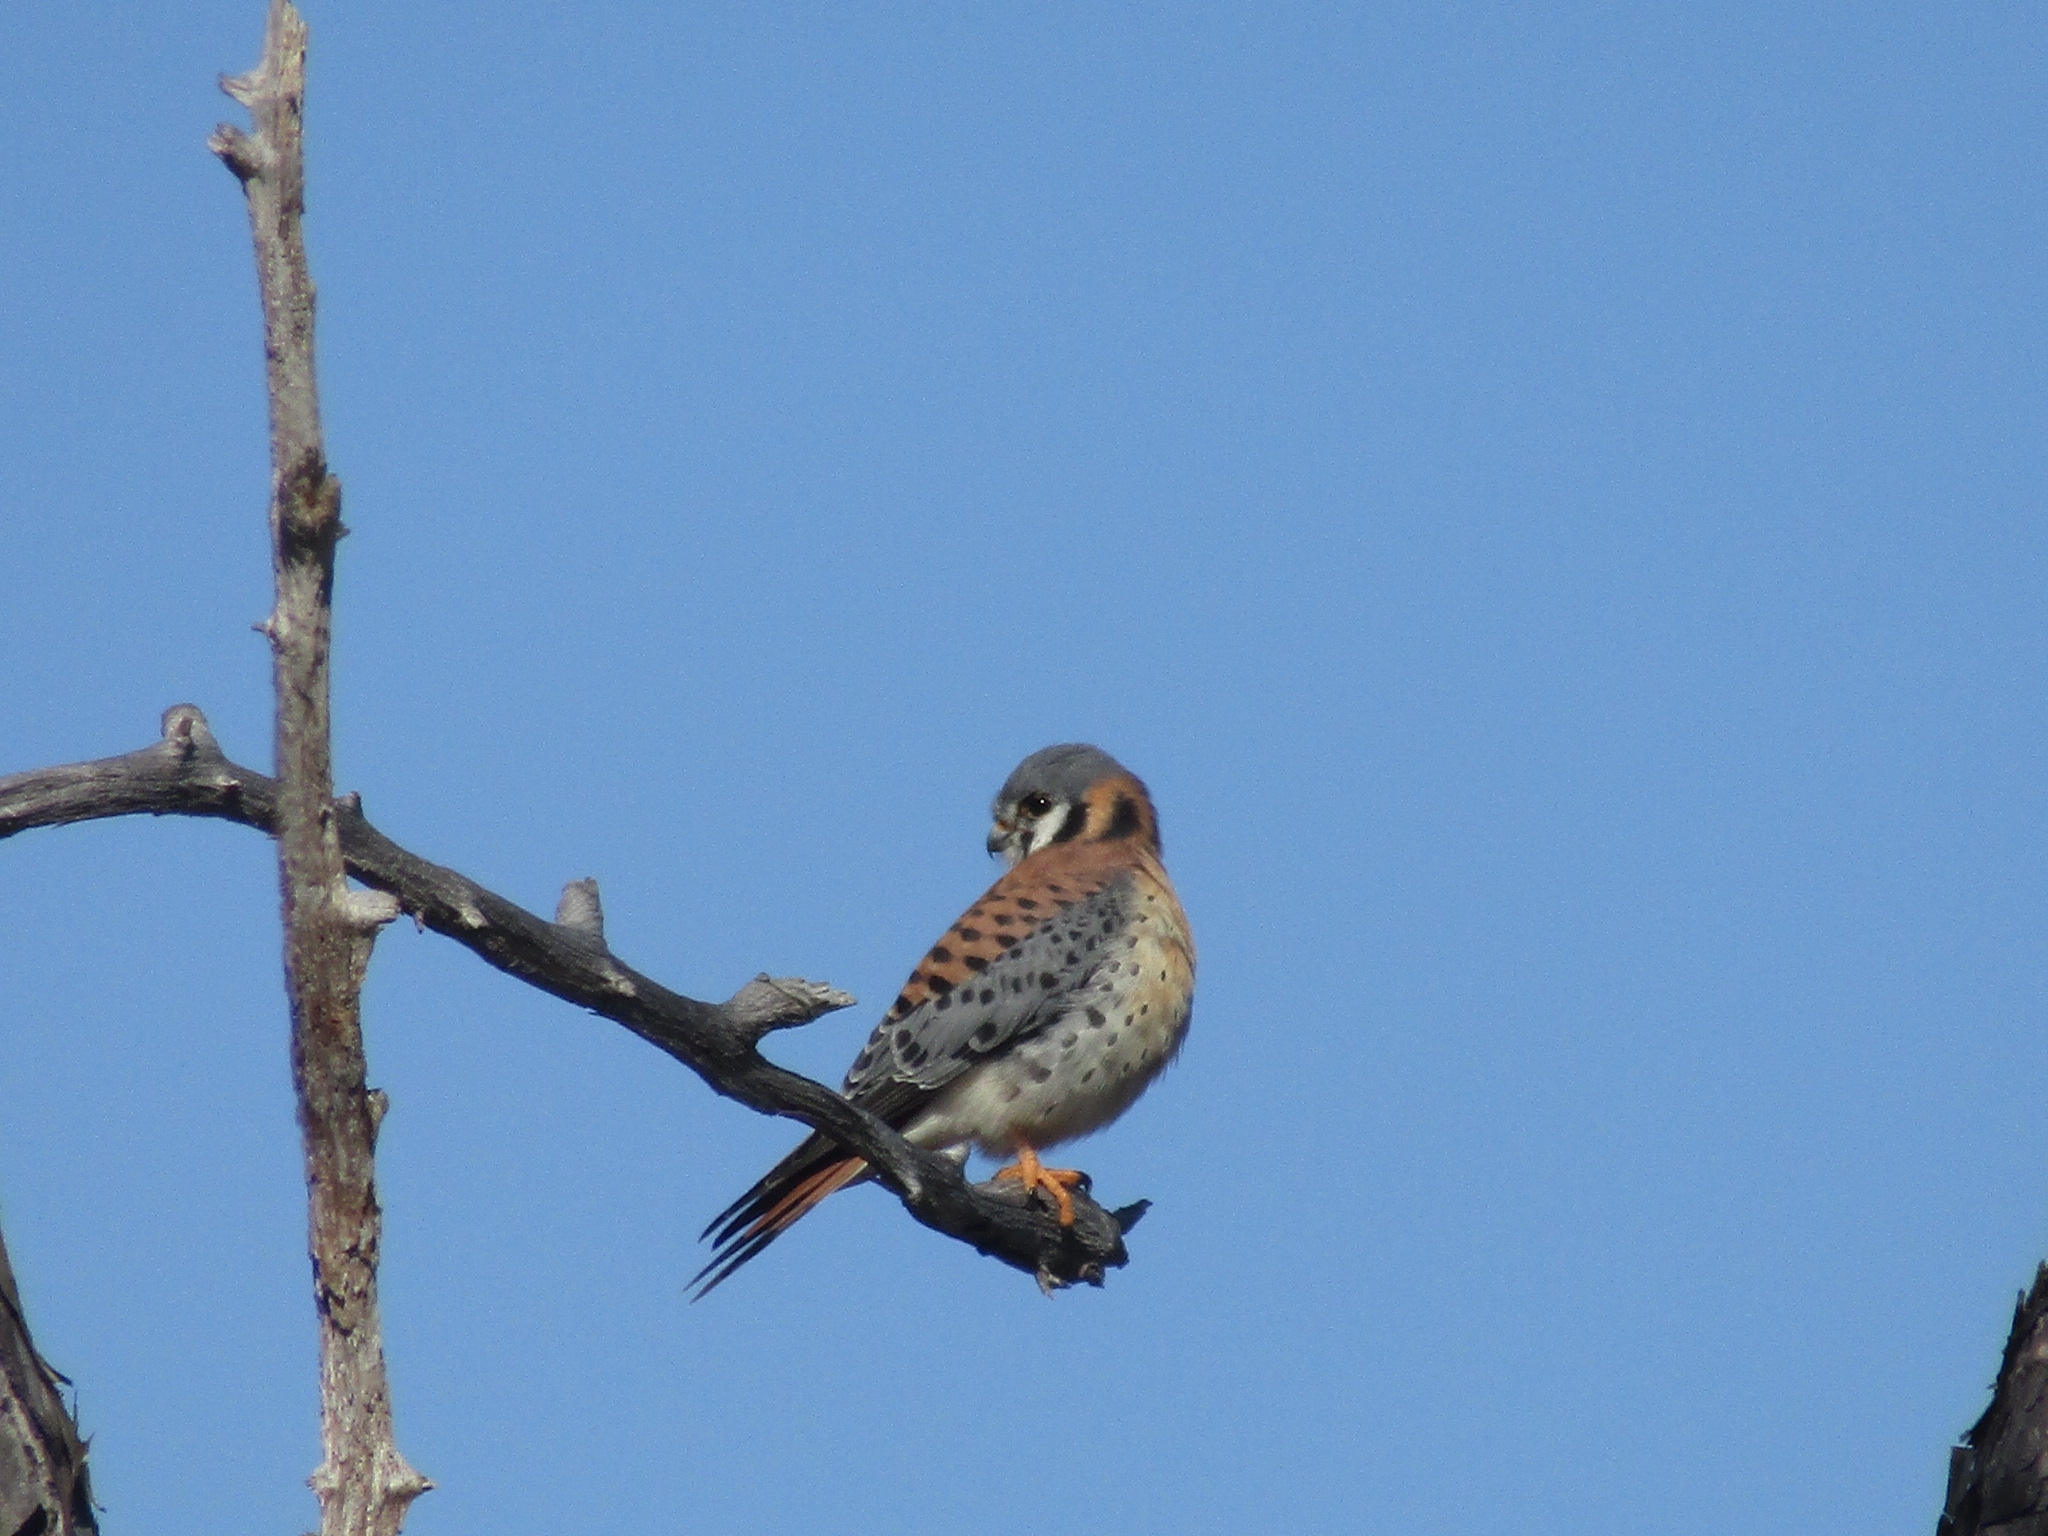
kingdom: Animalia
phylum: Chordata
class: Aves
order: Falconiformes
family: Falconidae
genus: Falco
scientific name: Falco sparverius
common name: American kestrel
